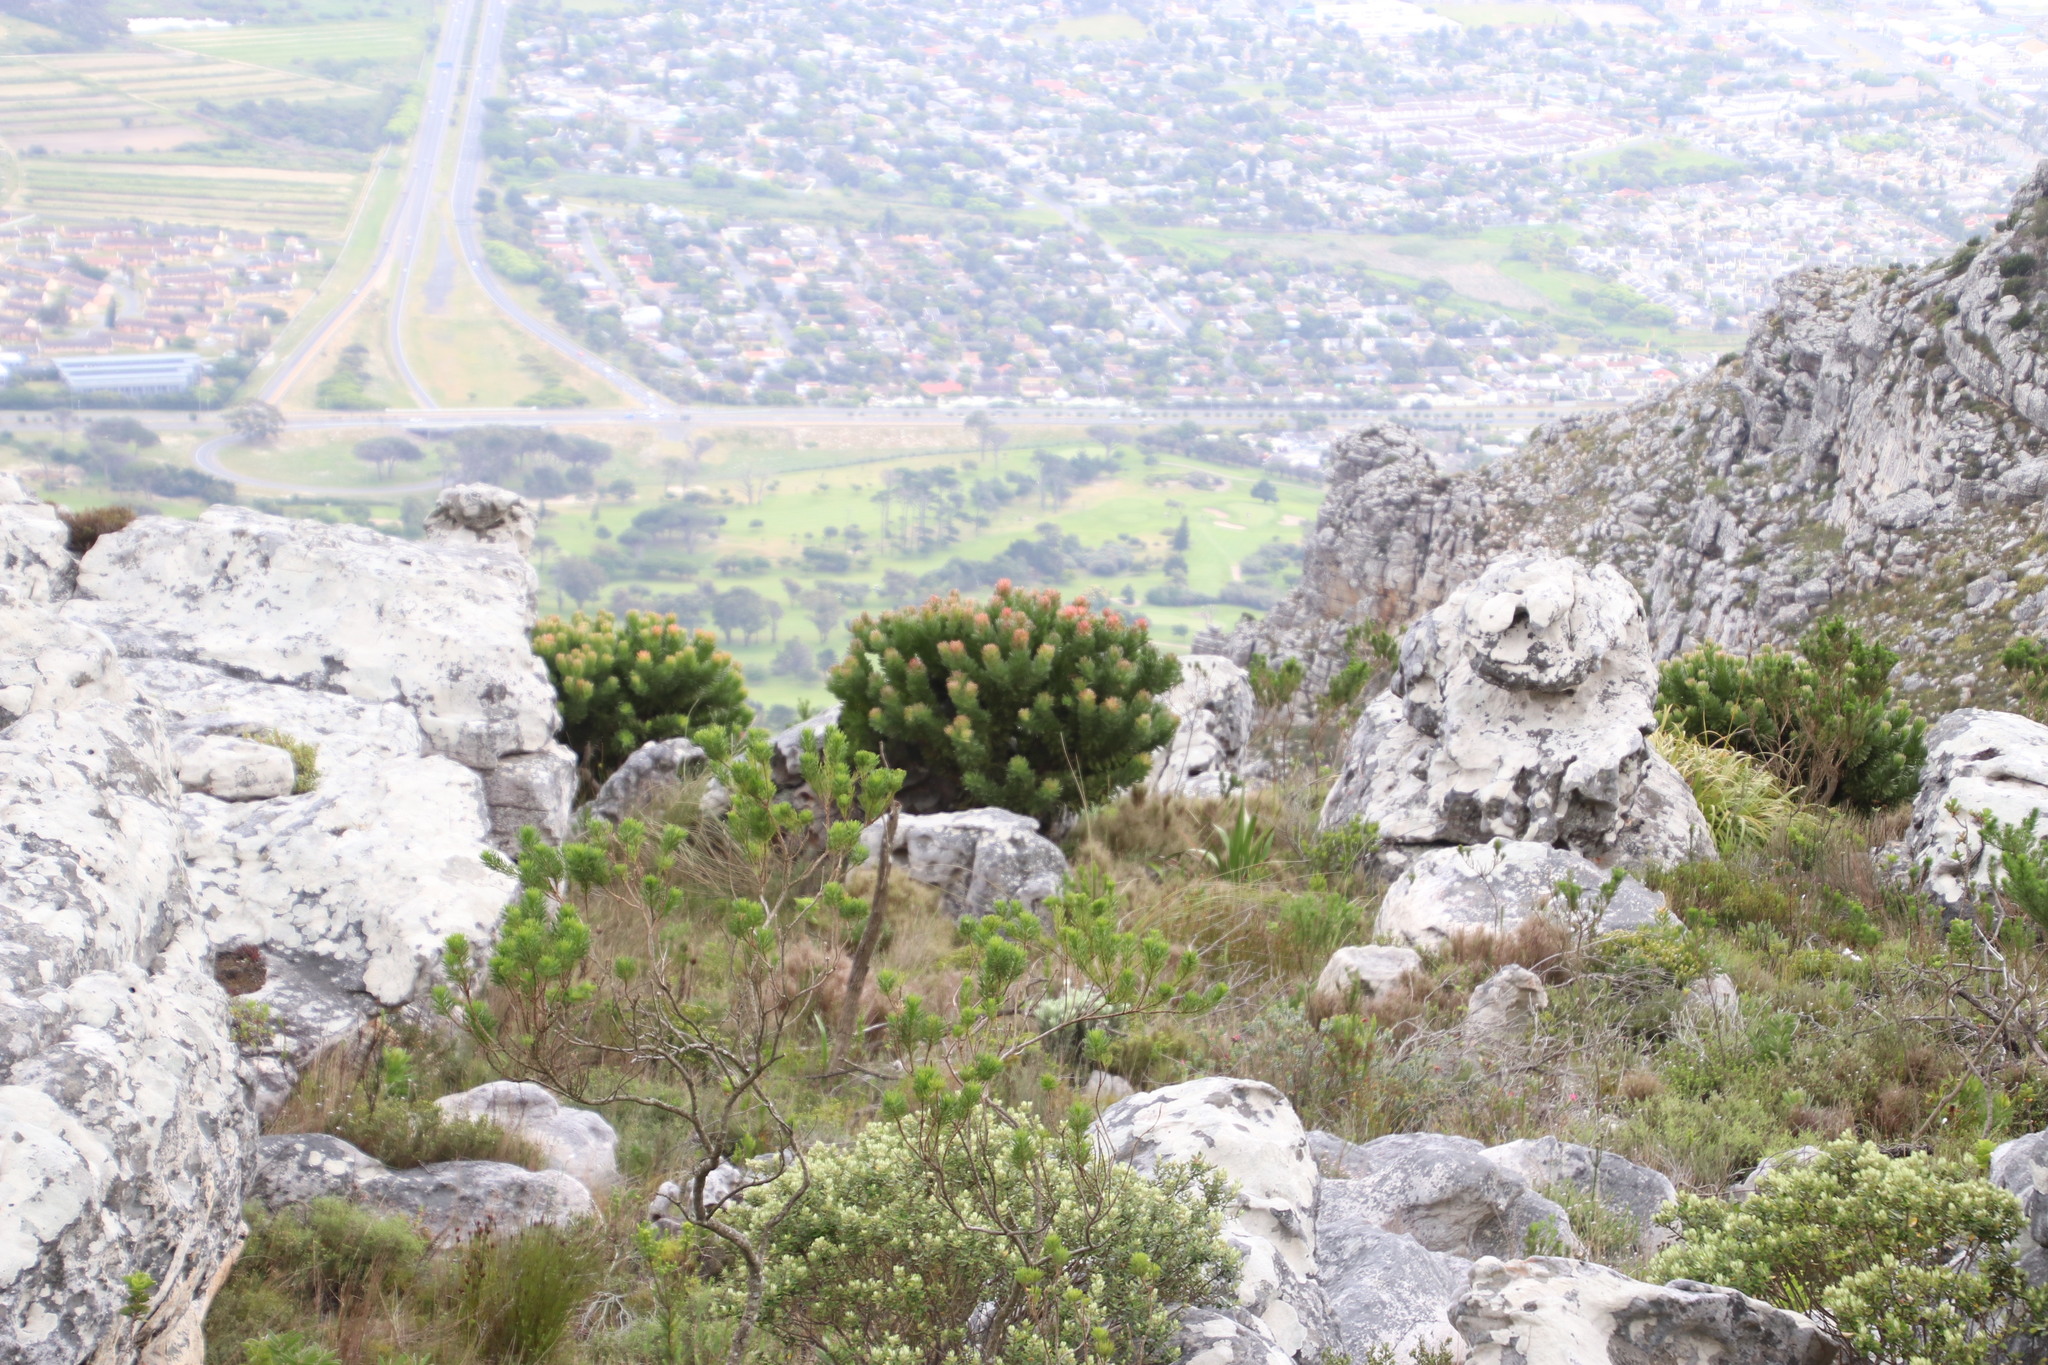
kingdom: Plantae
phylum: Tracheophyta
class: Magnoliopsida
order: Proteales
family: Proteaceae
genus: Mimetes
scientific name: Mimetes fimbriifolius
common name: Fringed bottlebrush
